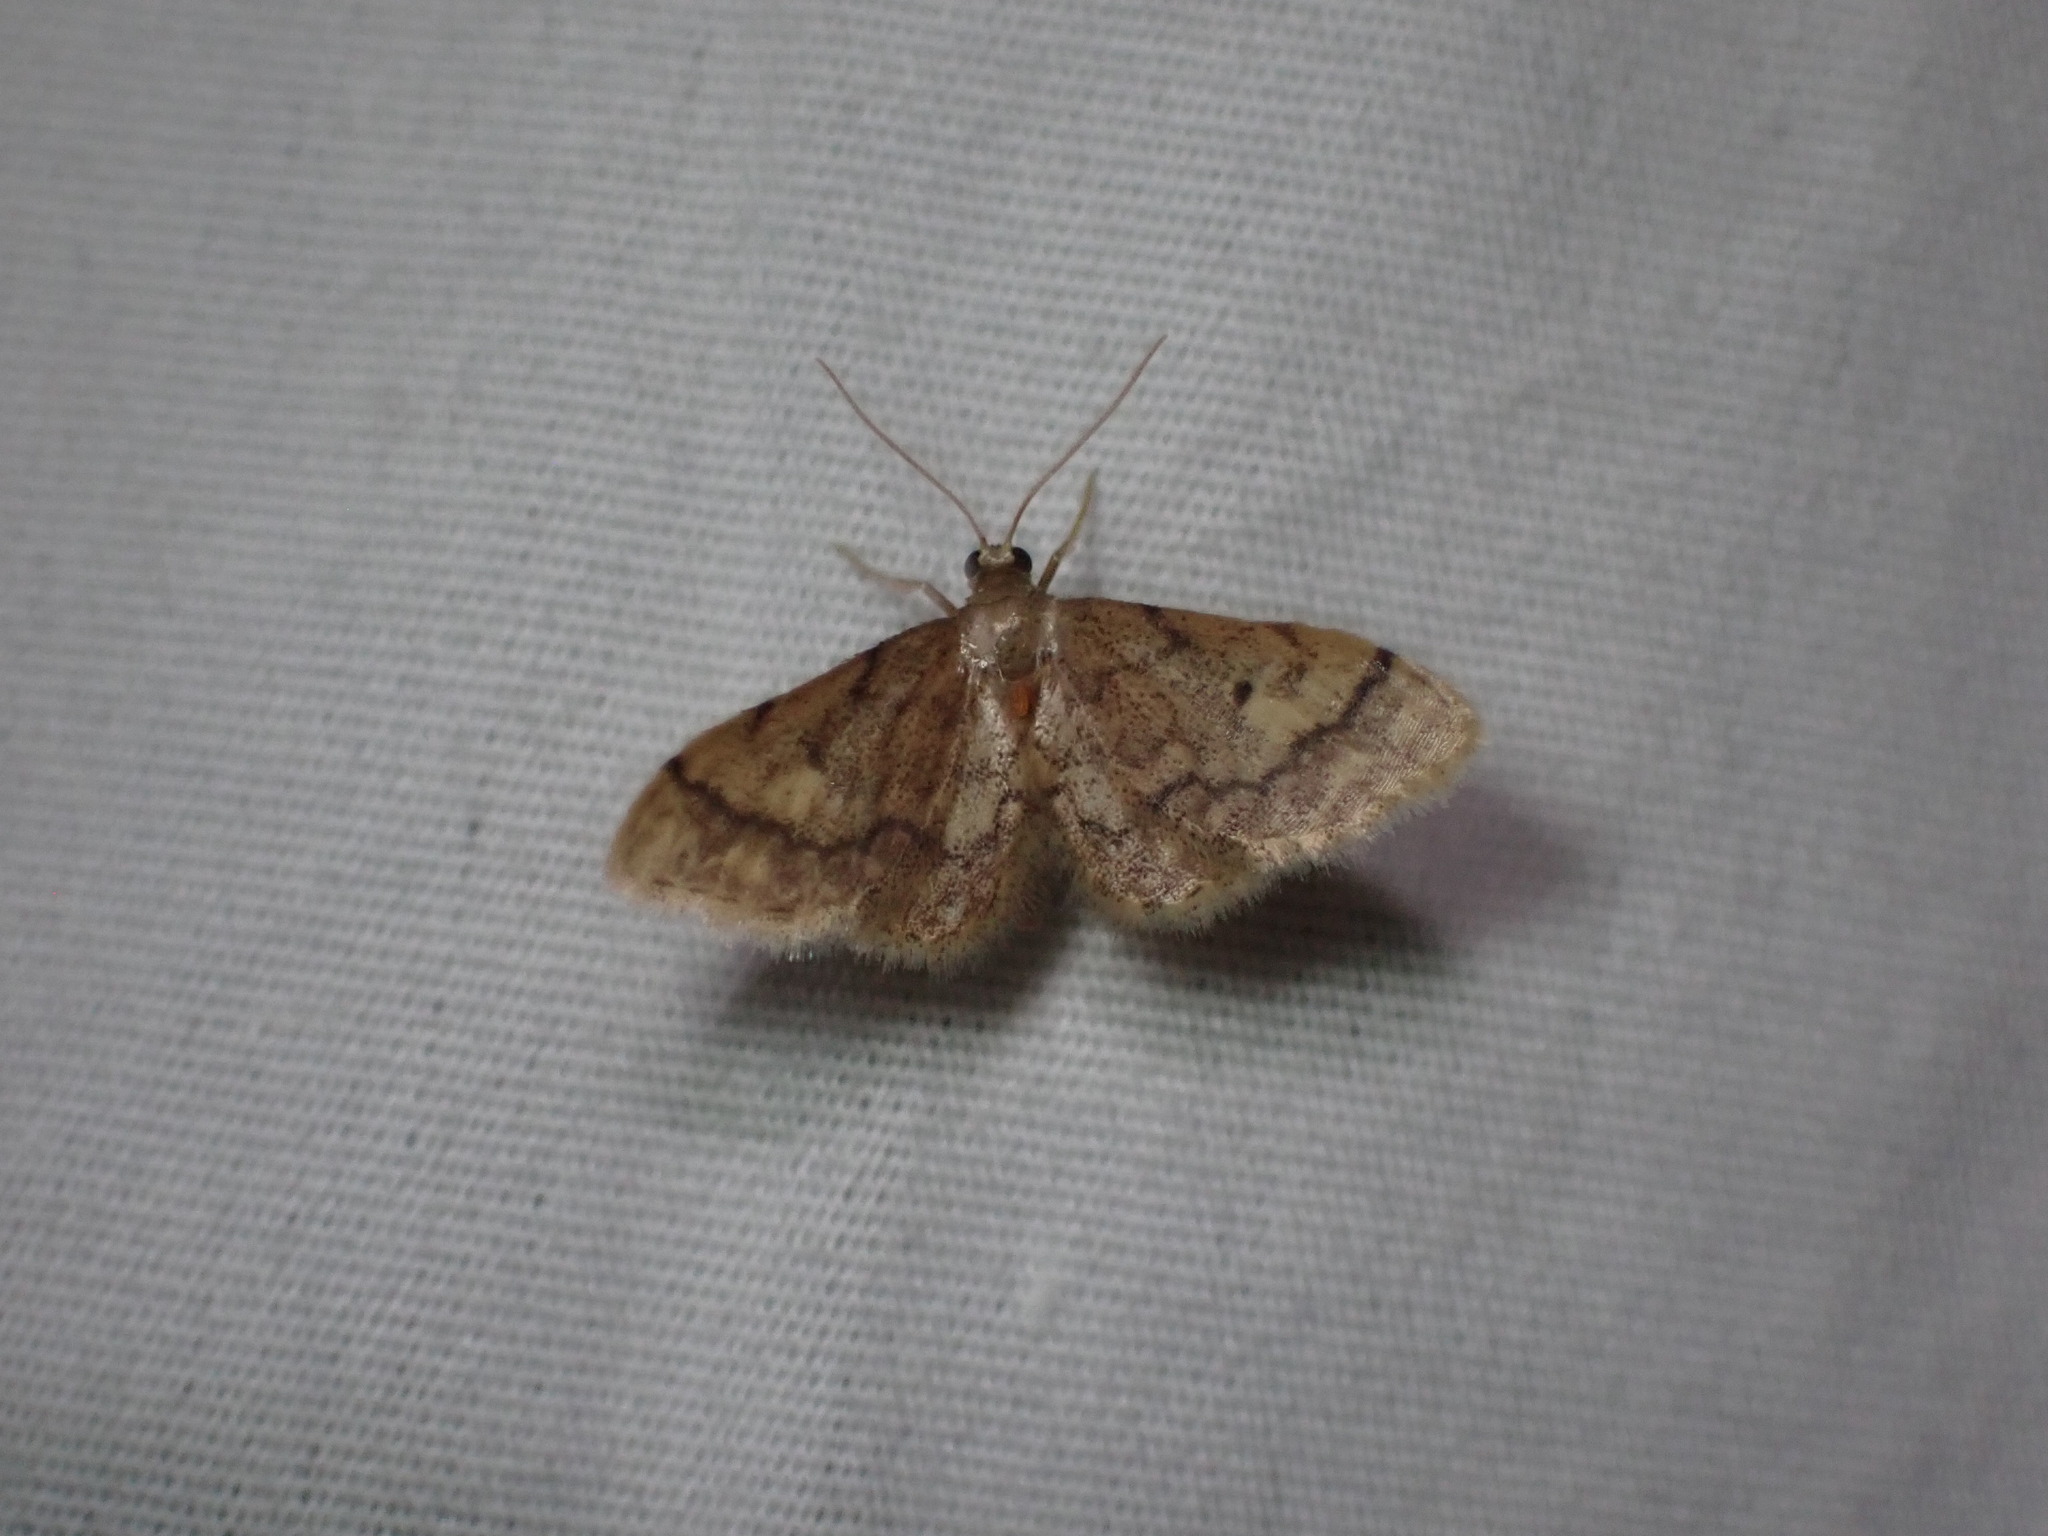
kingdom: Animalia
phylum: Arthropoda
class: Insecta
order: Lepidoptera
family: Geometridae
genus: Idaea
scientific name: Idaea celtima
